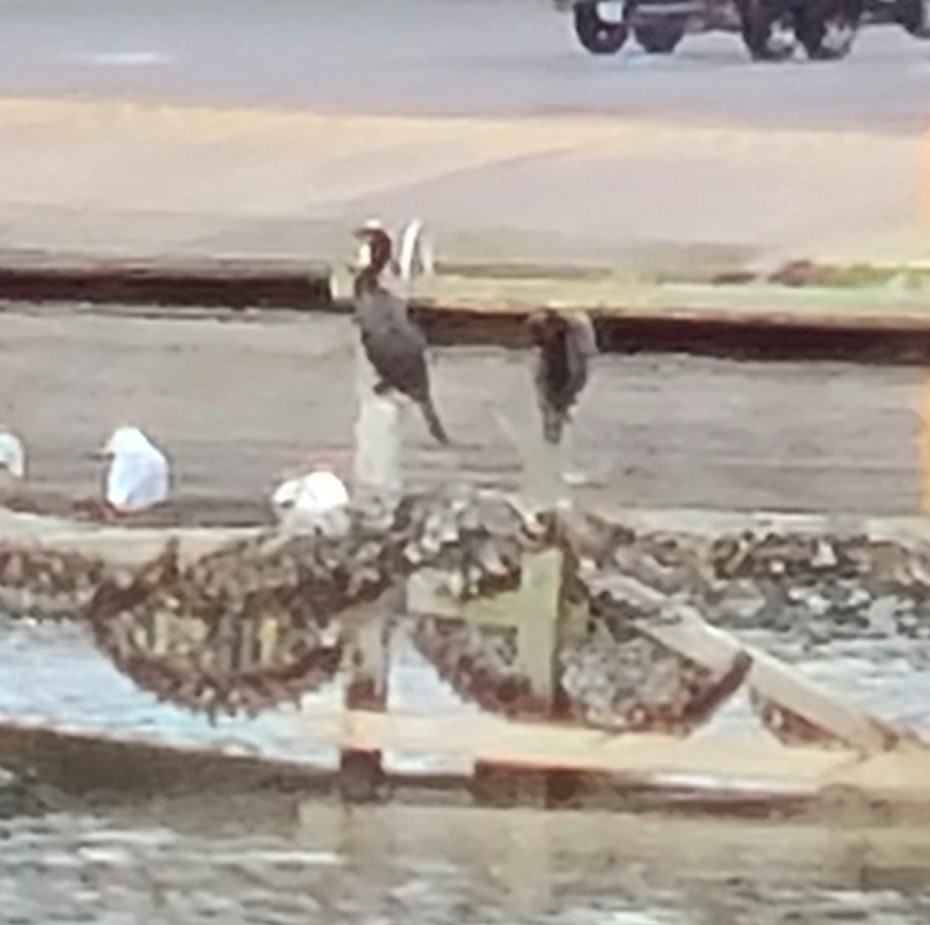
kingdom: Animalia
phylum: Chordata
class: Aves
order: Suliformes
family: Phalacrocoracidae
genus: Phalacrocorax
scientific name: Phalacrocorax auritus
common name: Double-crested cormorant
